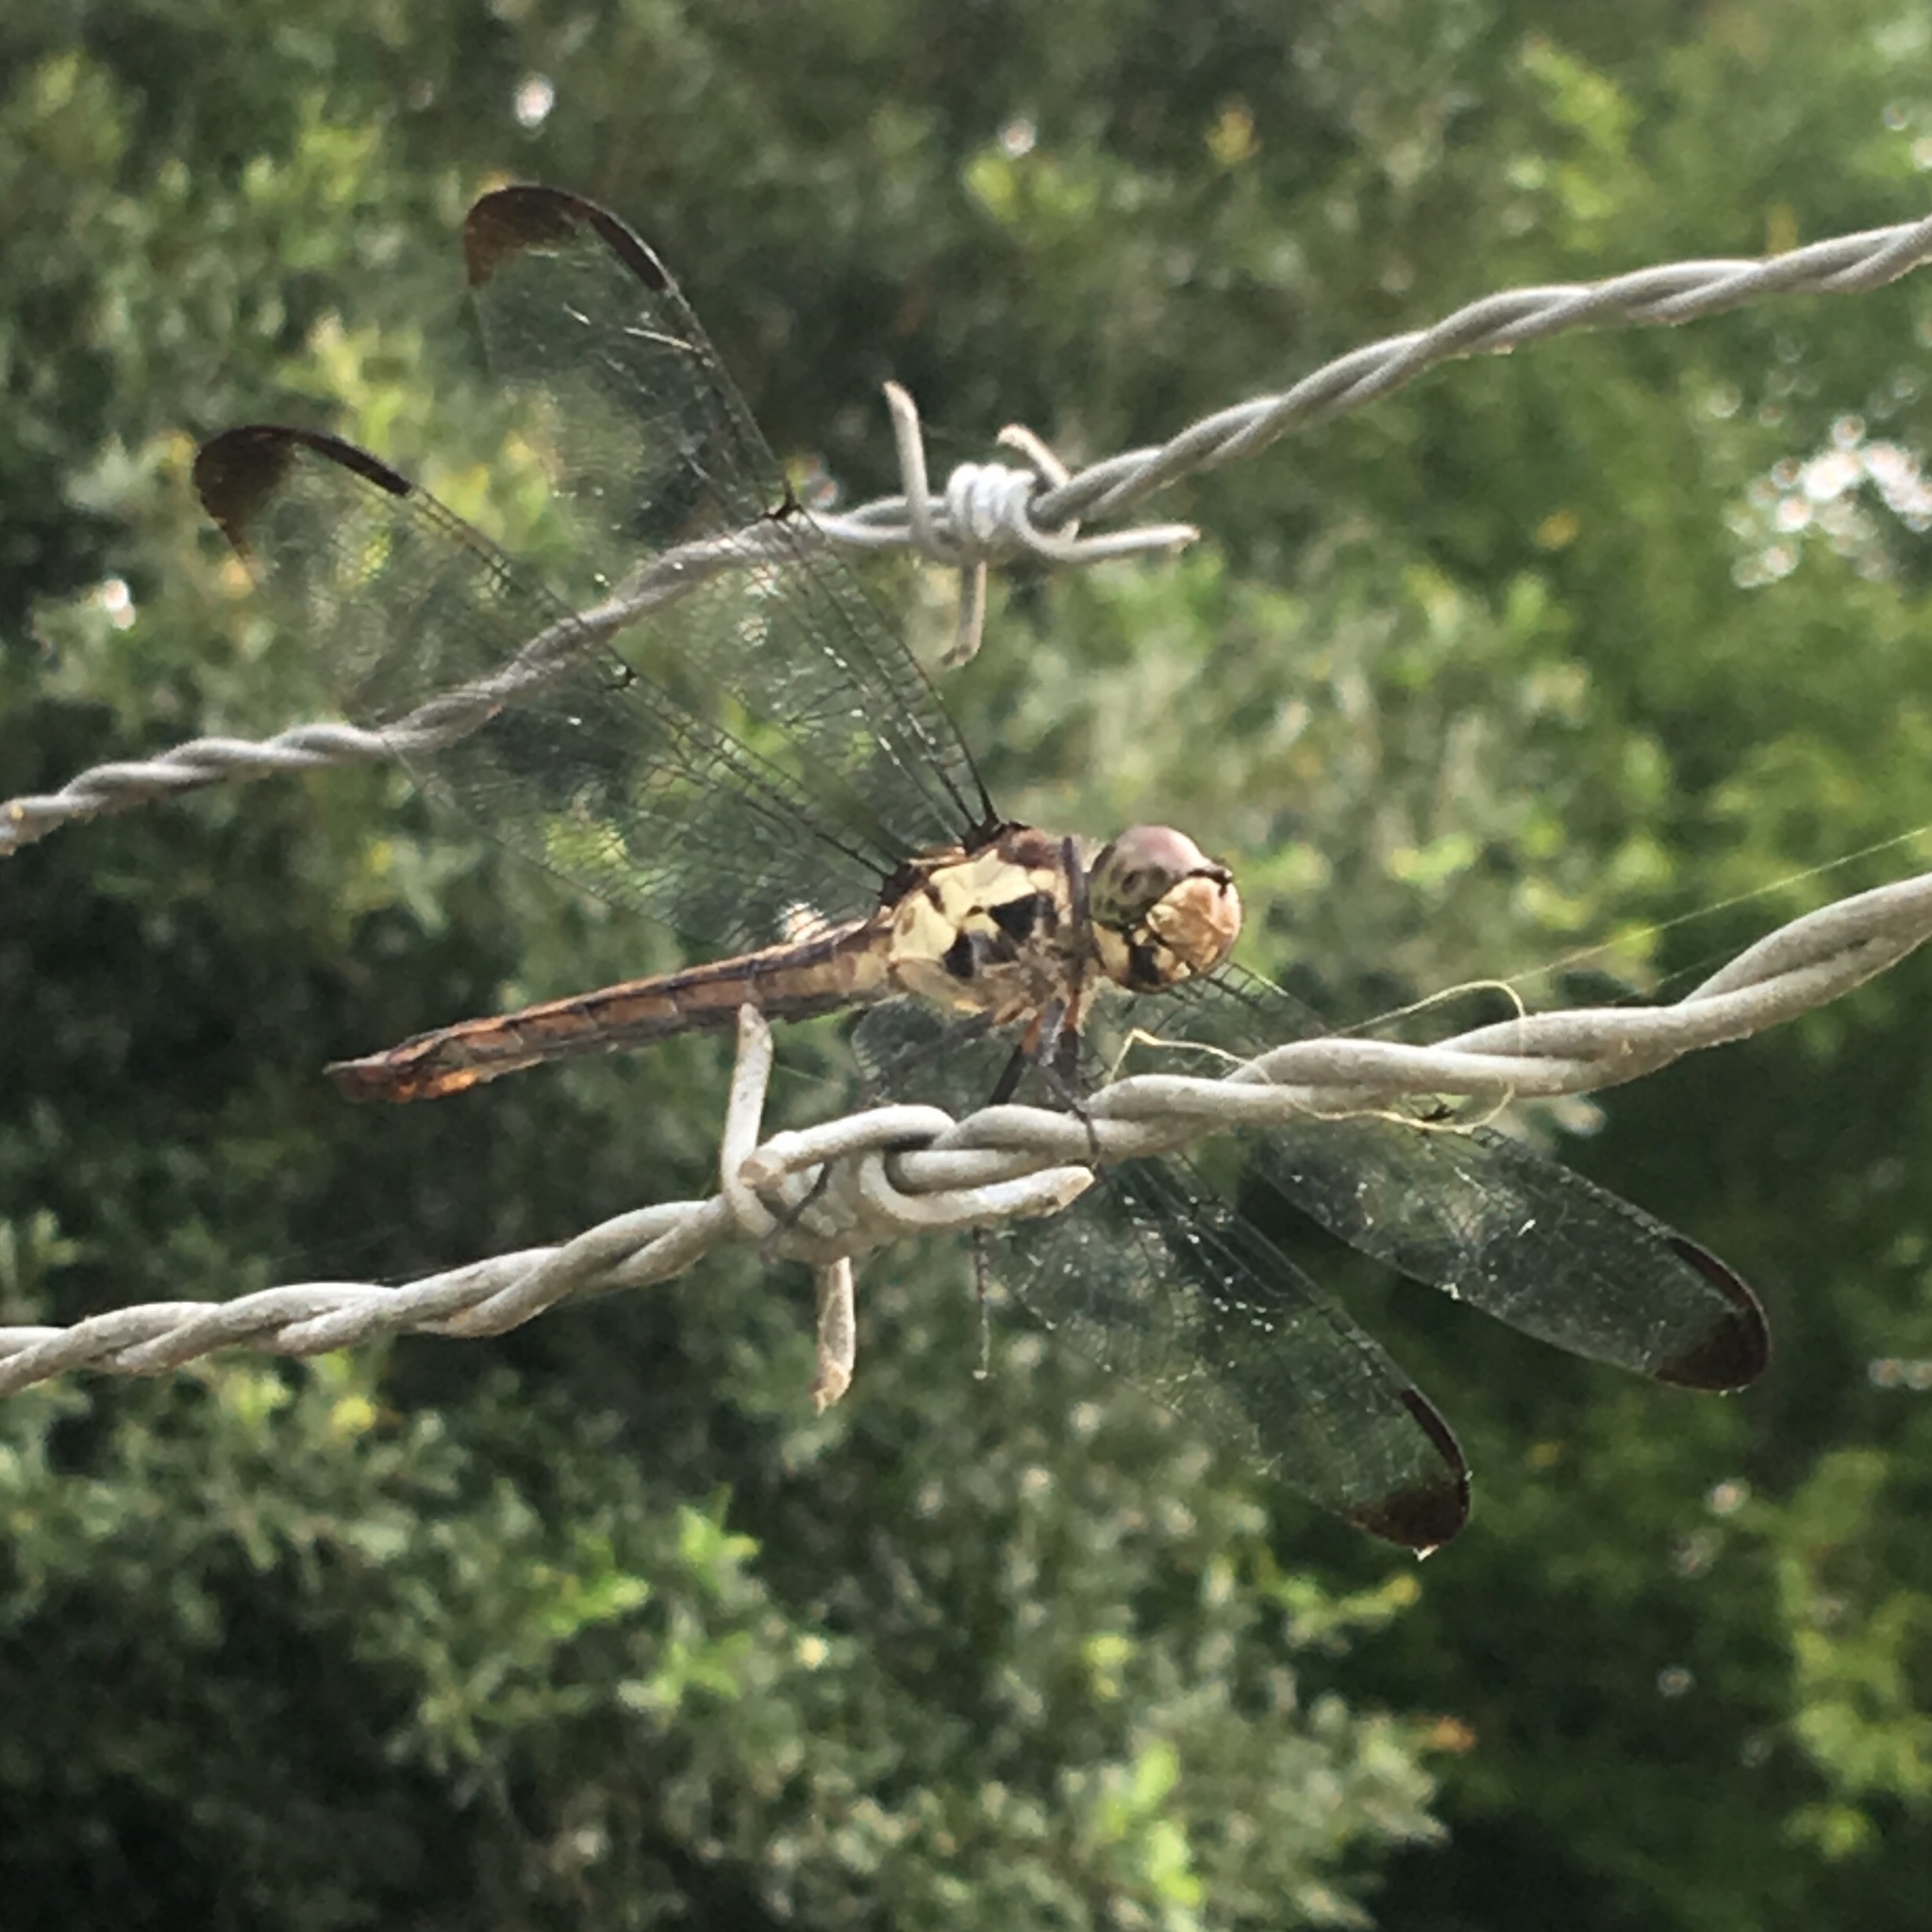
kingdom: Animalia
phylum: Arthropoda
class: Insecta
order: Odonata
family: Libellulidae
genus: Libellula
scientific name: Libellula vibrans
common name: Great blue skimmer
